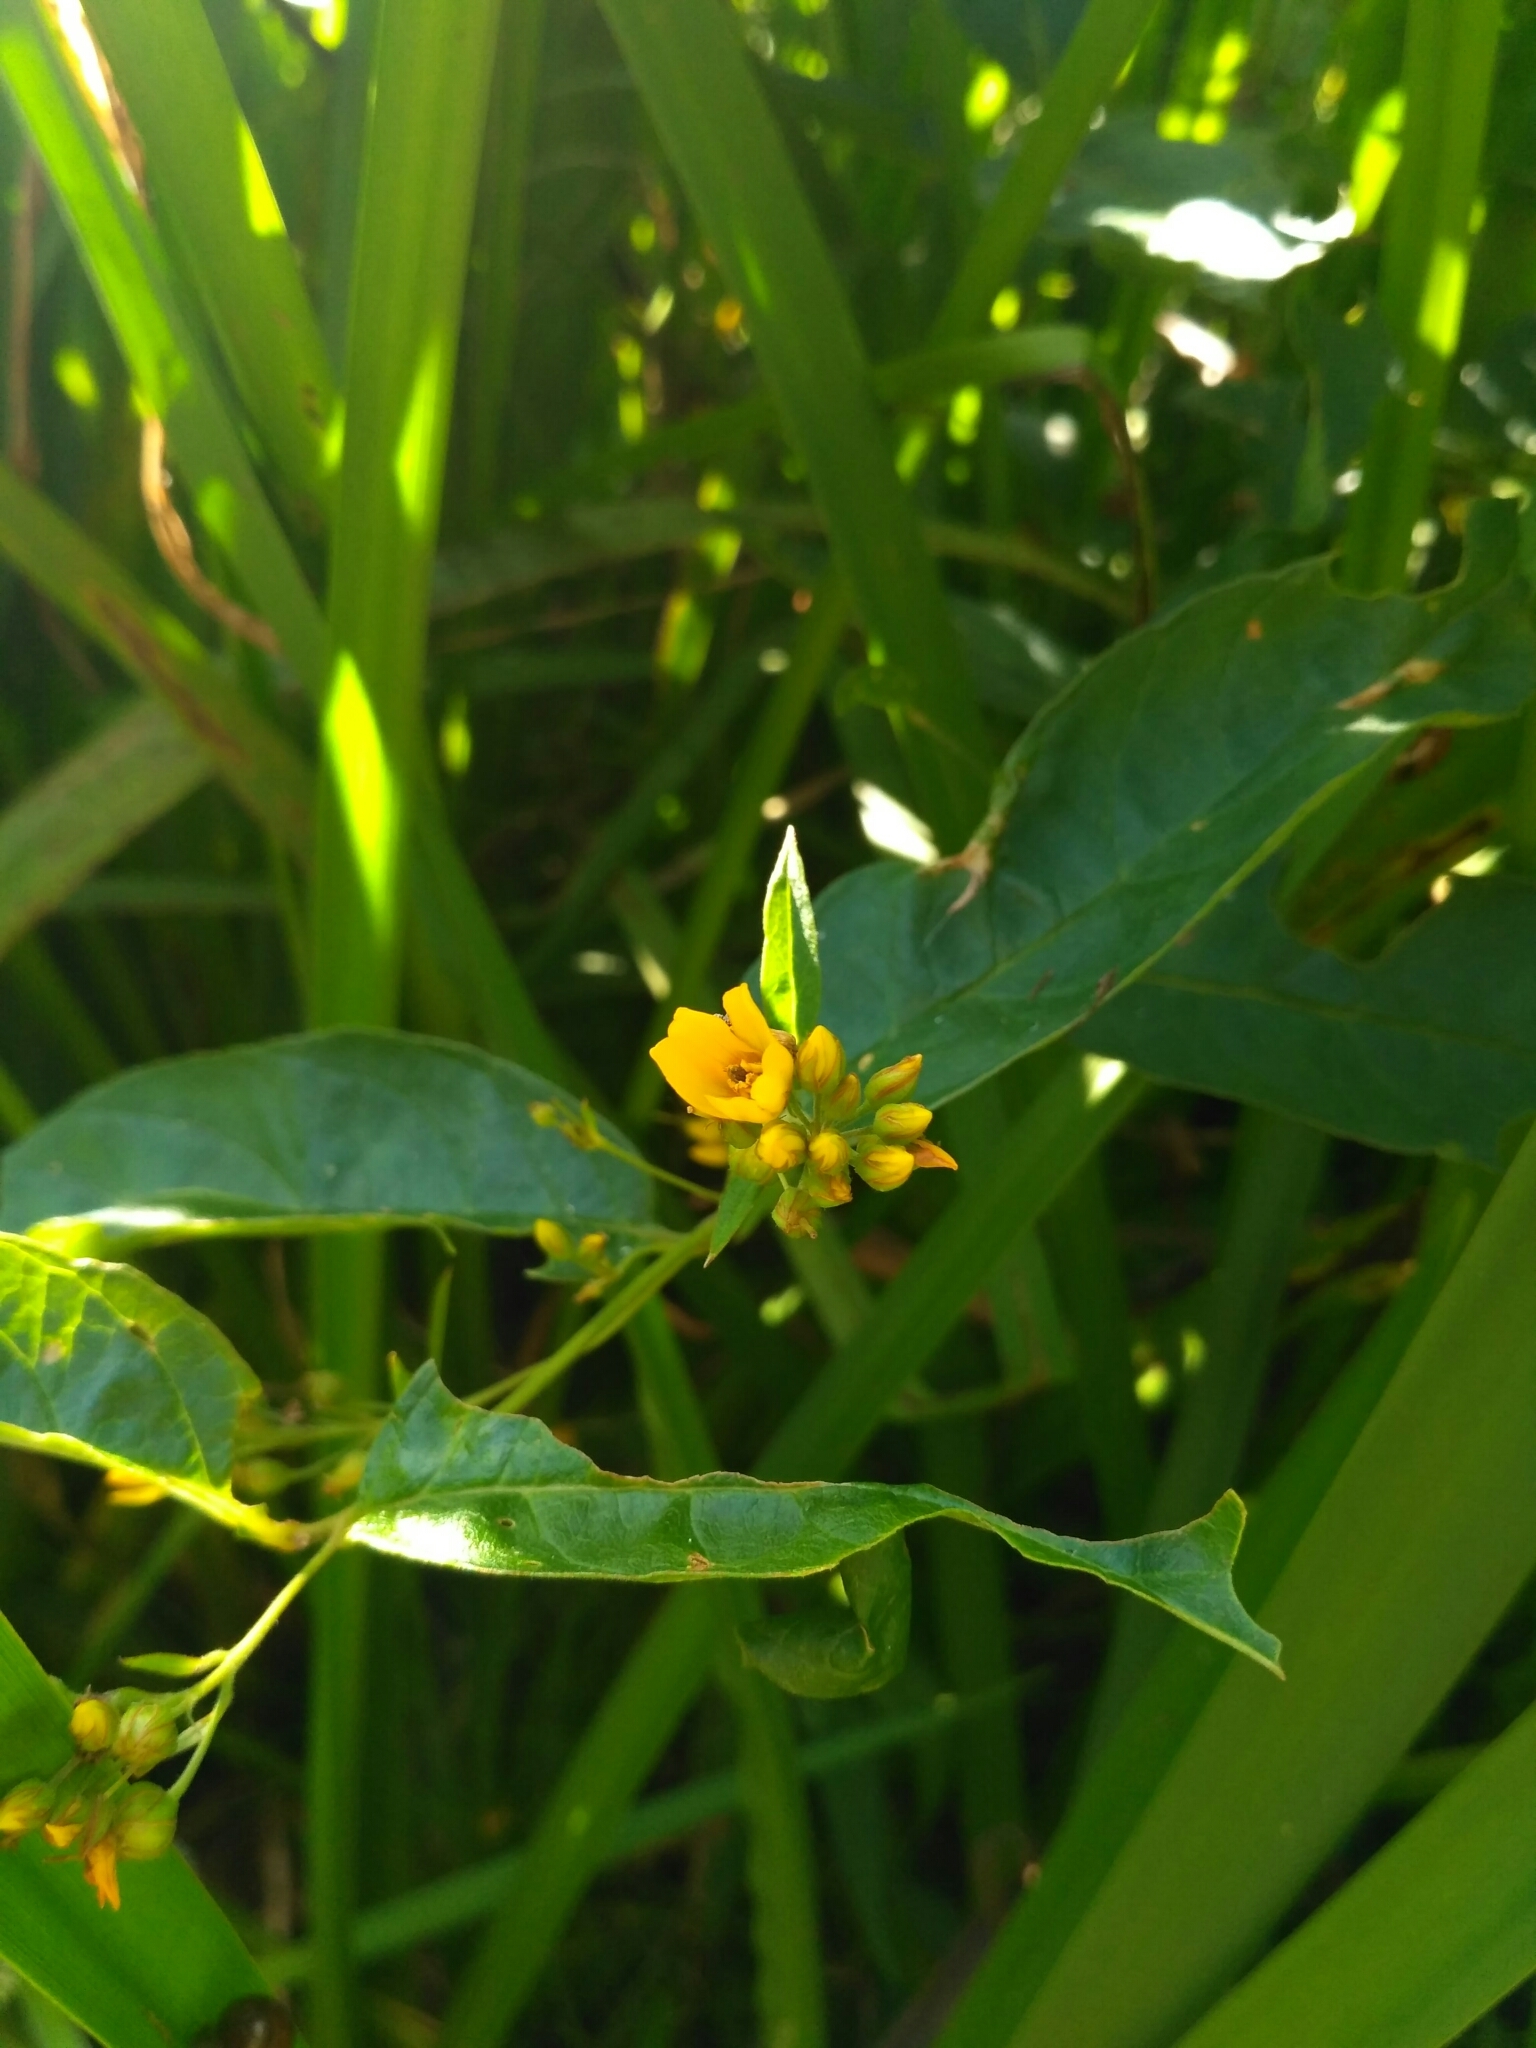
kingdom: Plantae
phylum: Tracheophyta
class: Magnoliopsida
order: Ericales
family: Primulaceae
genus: Lysimachia
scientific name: Lysimachia vulgaris
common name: Yellow loosestrife
